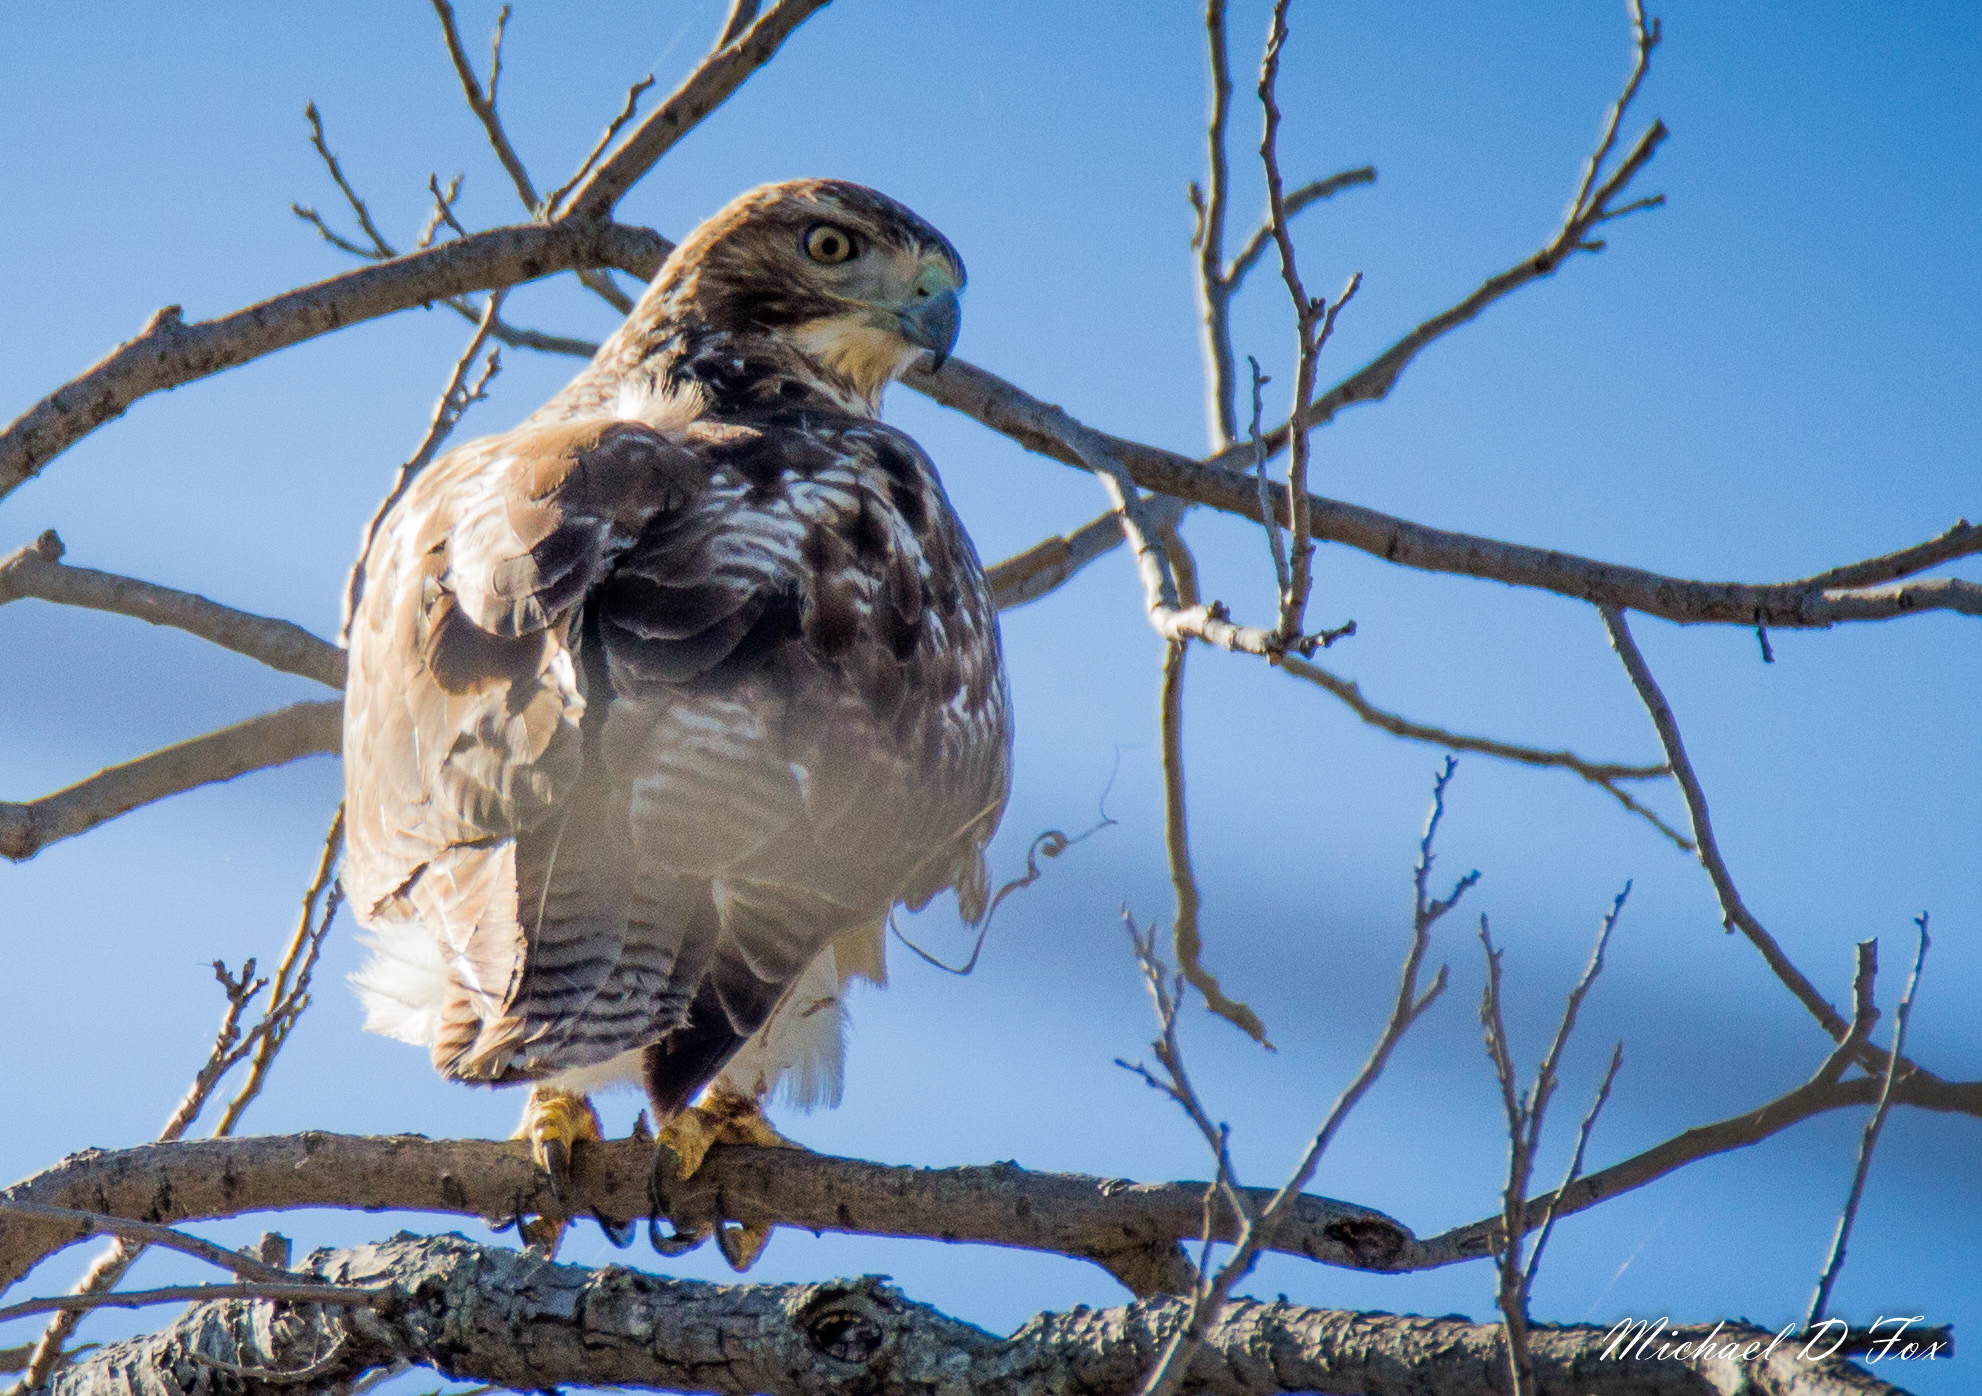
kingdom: Animalia
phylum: Chordata
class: Aves
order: Accipitriformes
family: Accipitridae
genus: Buteo
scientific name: Buteo jamaicensis
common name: Red-tailed hawk
